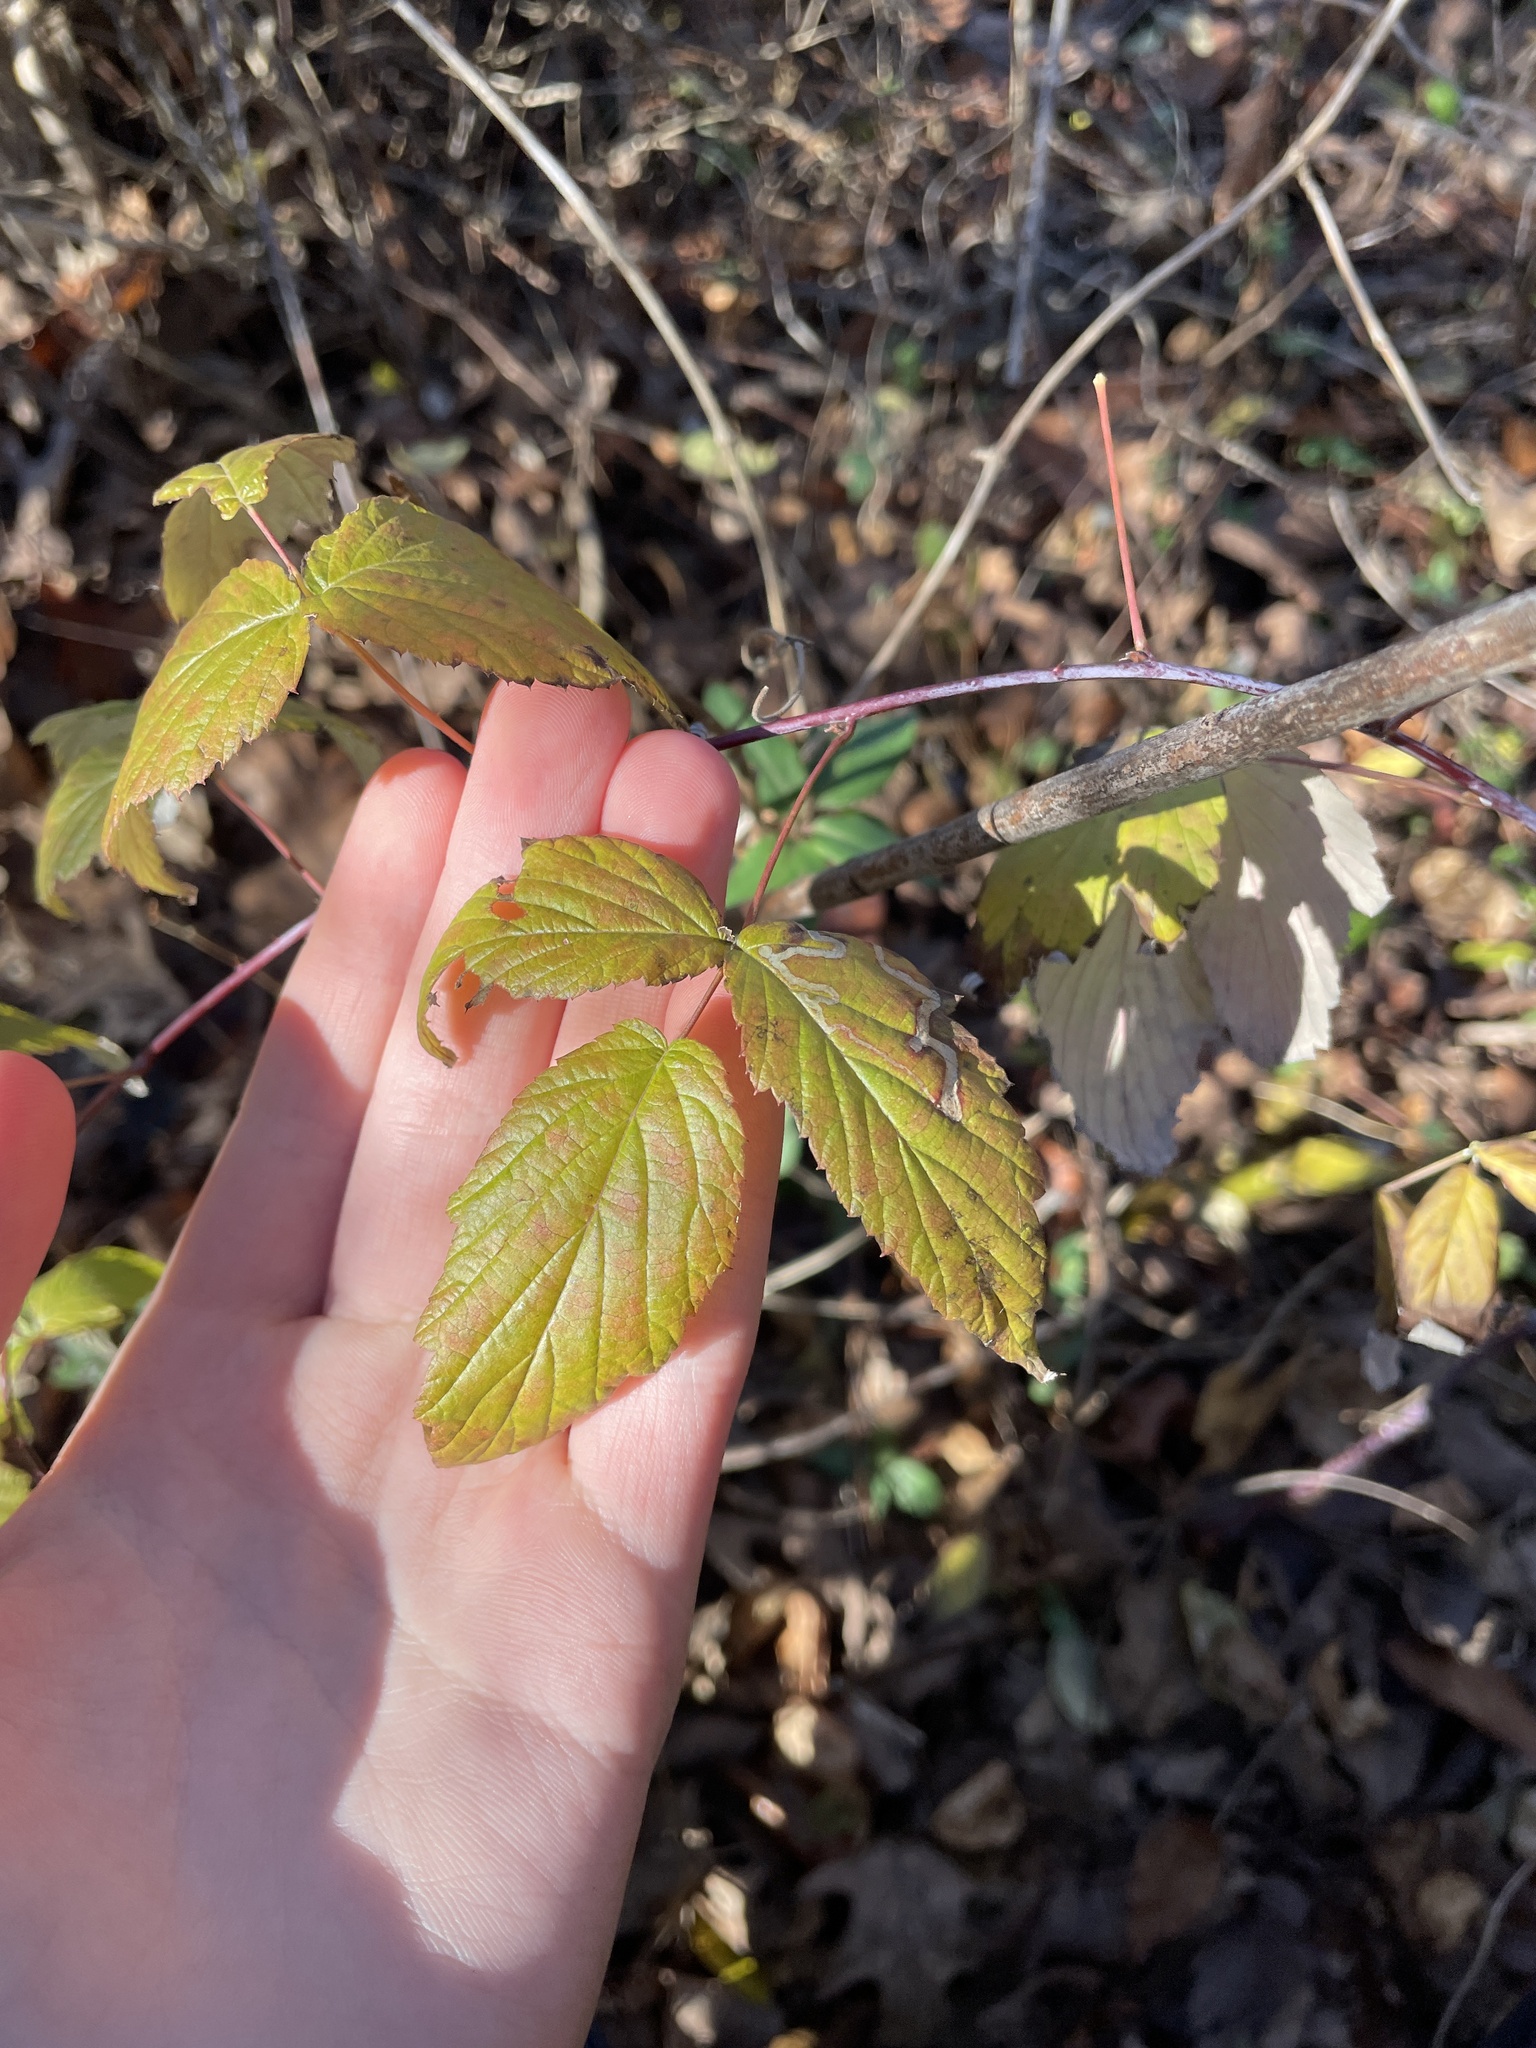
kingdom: Animalia
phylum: Arthropoda
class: Insecta
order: Diptera
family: Agromyzidae
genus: Agromyza
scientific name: Agromyza vockerothi
